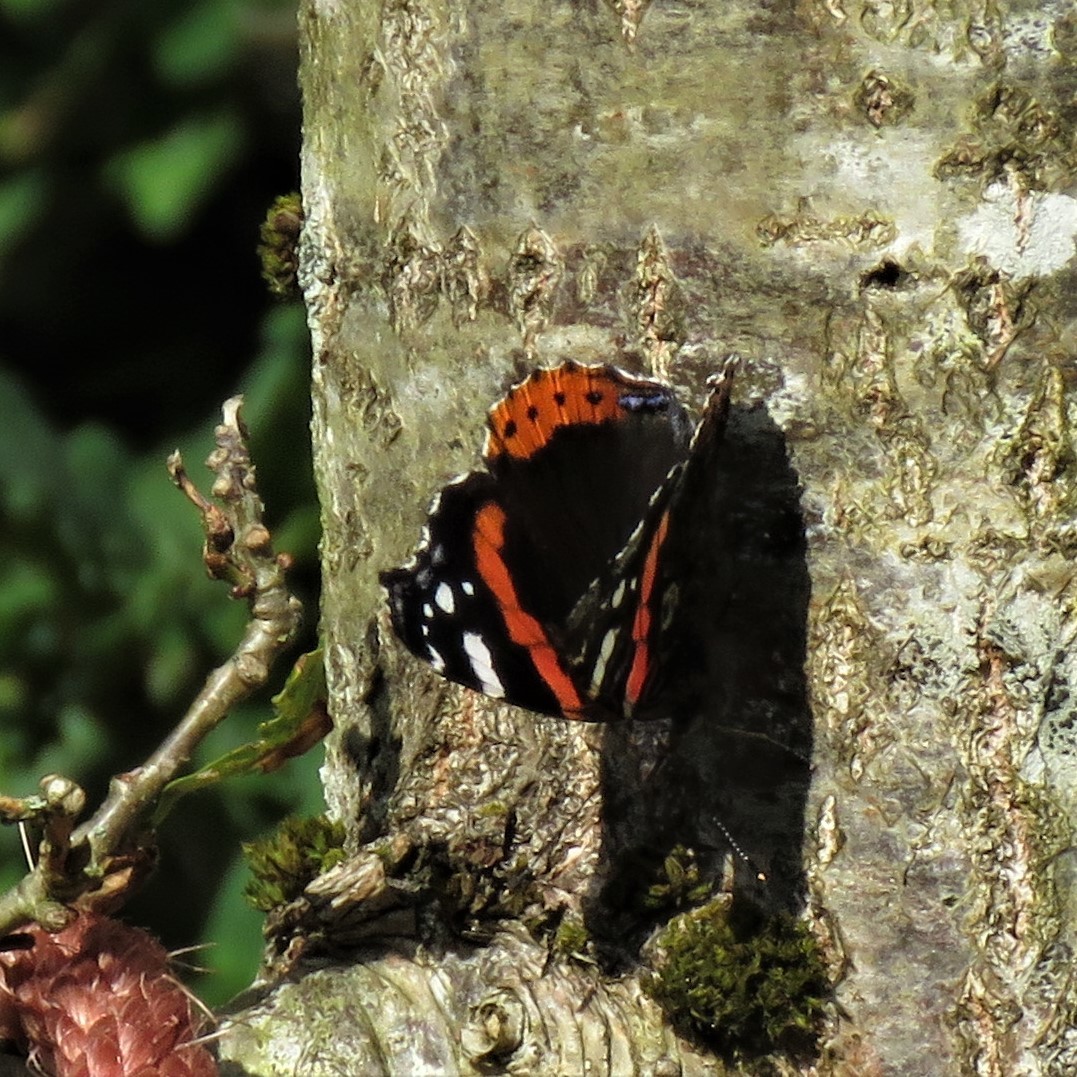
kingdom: Animalia
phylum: Arthropoda
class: Insecta
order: Lepidoptera
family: Nymphalidae
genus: Vanessa
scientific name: Vanessa atalanta
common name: Red admiral
